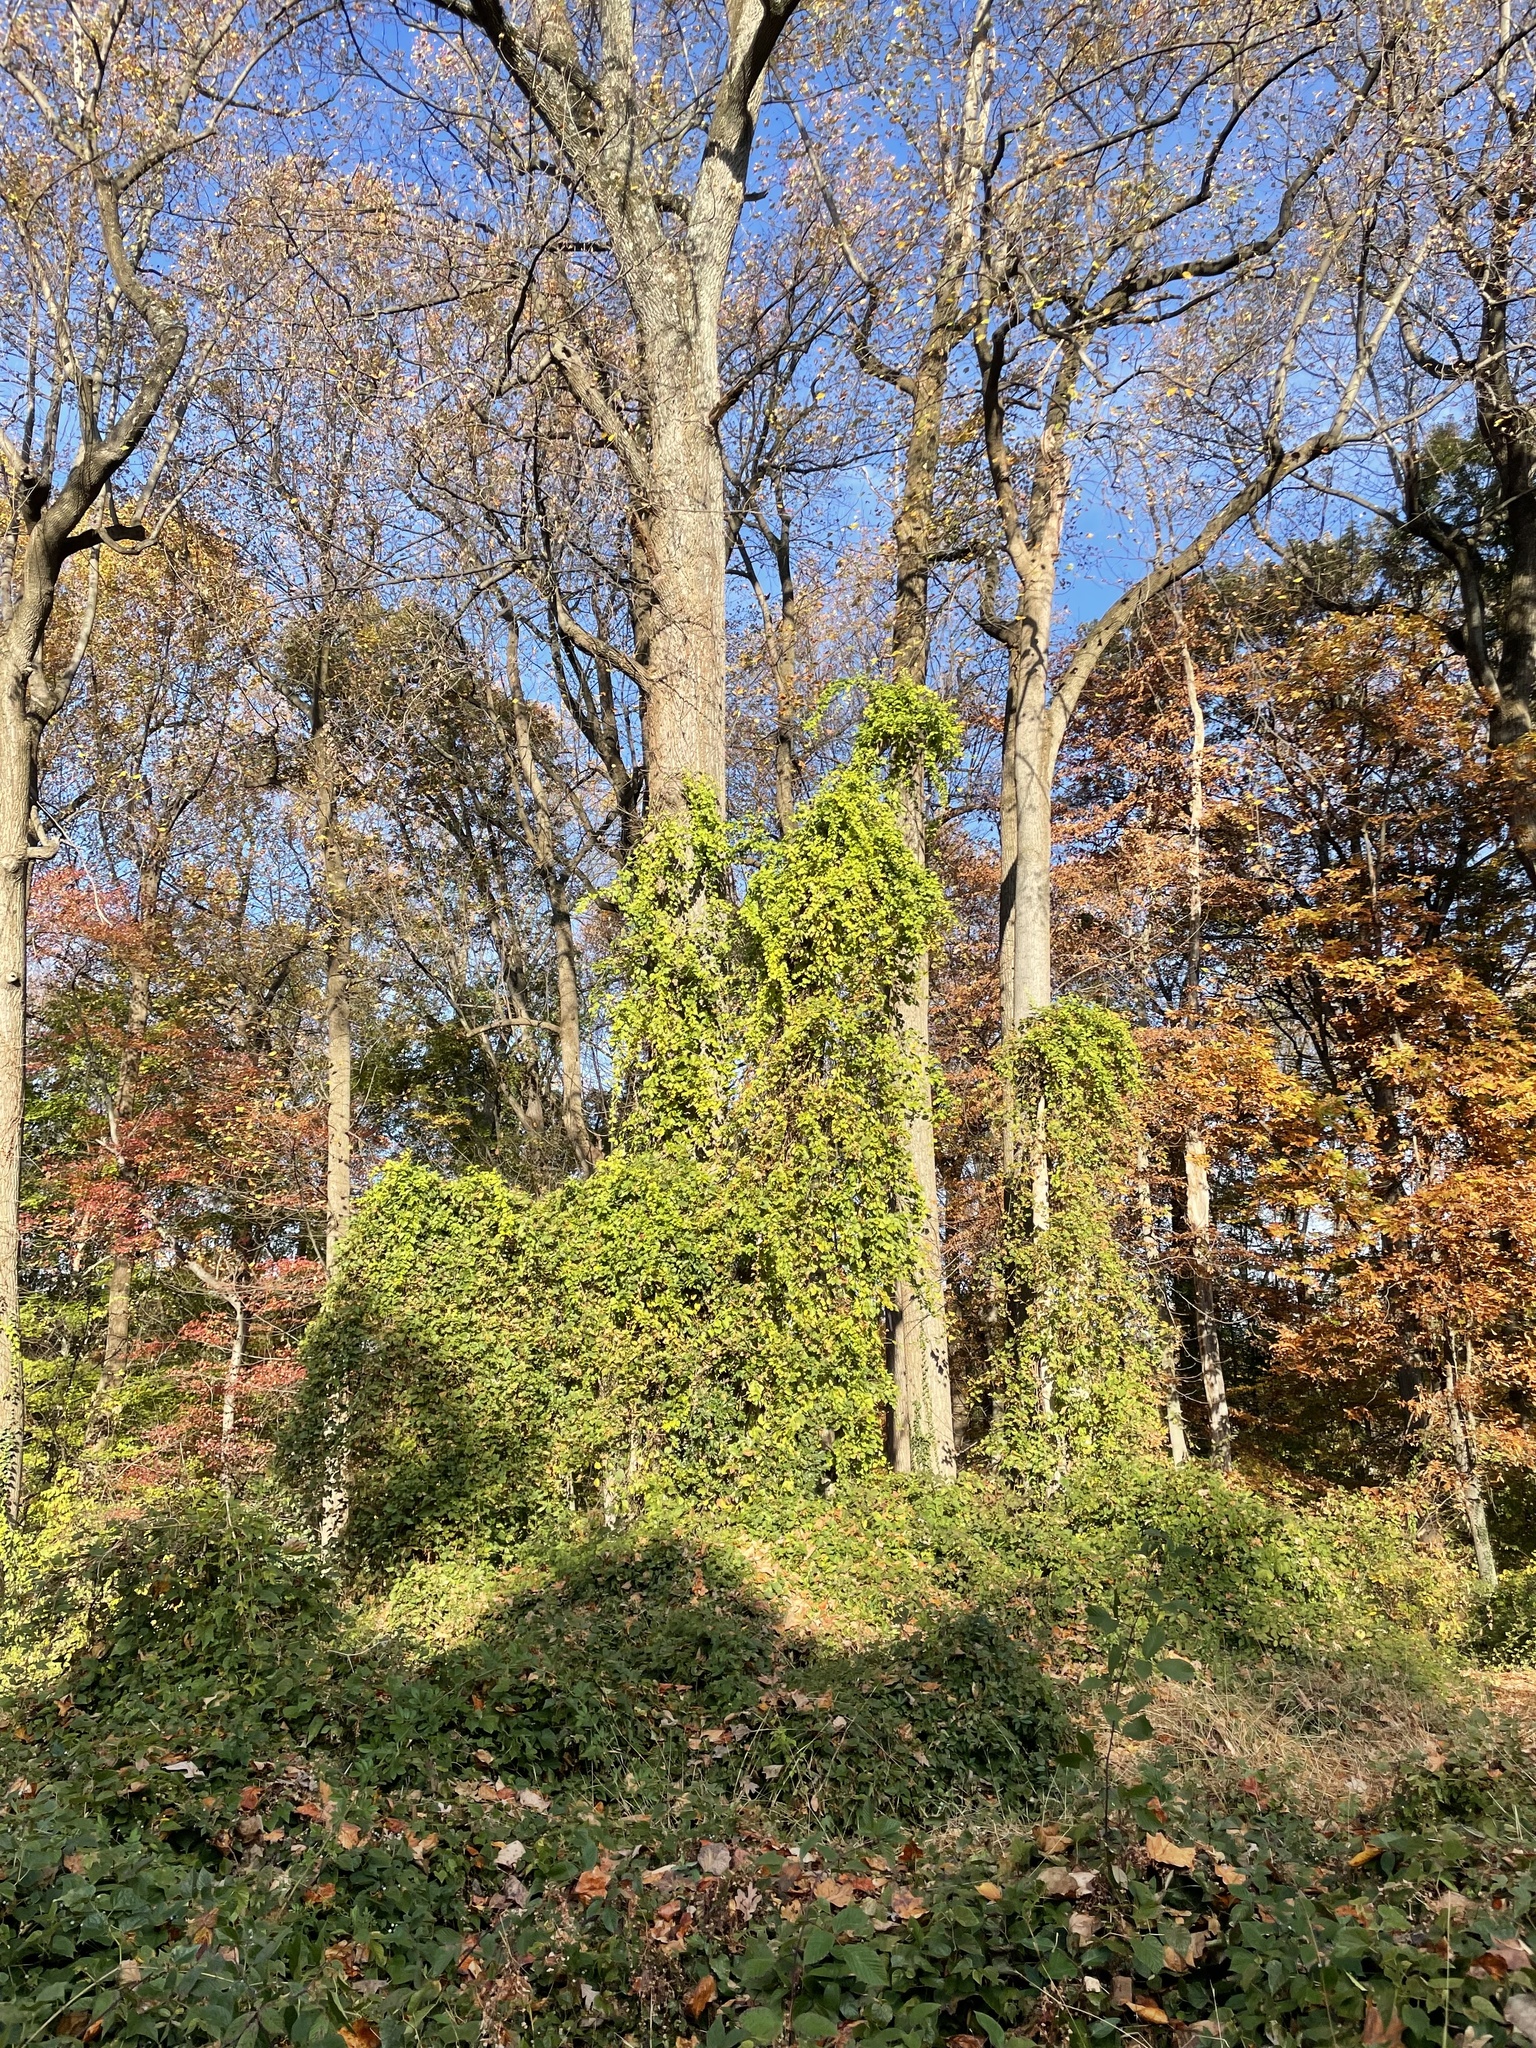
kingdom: Plantae
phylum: Tracheophyta
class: Magnoliopsida
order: Vitales
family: Vitaceae
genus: Ampelopsis
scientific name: Ampelopsis glandulosa
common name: Amur peppervine
